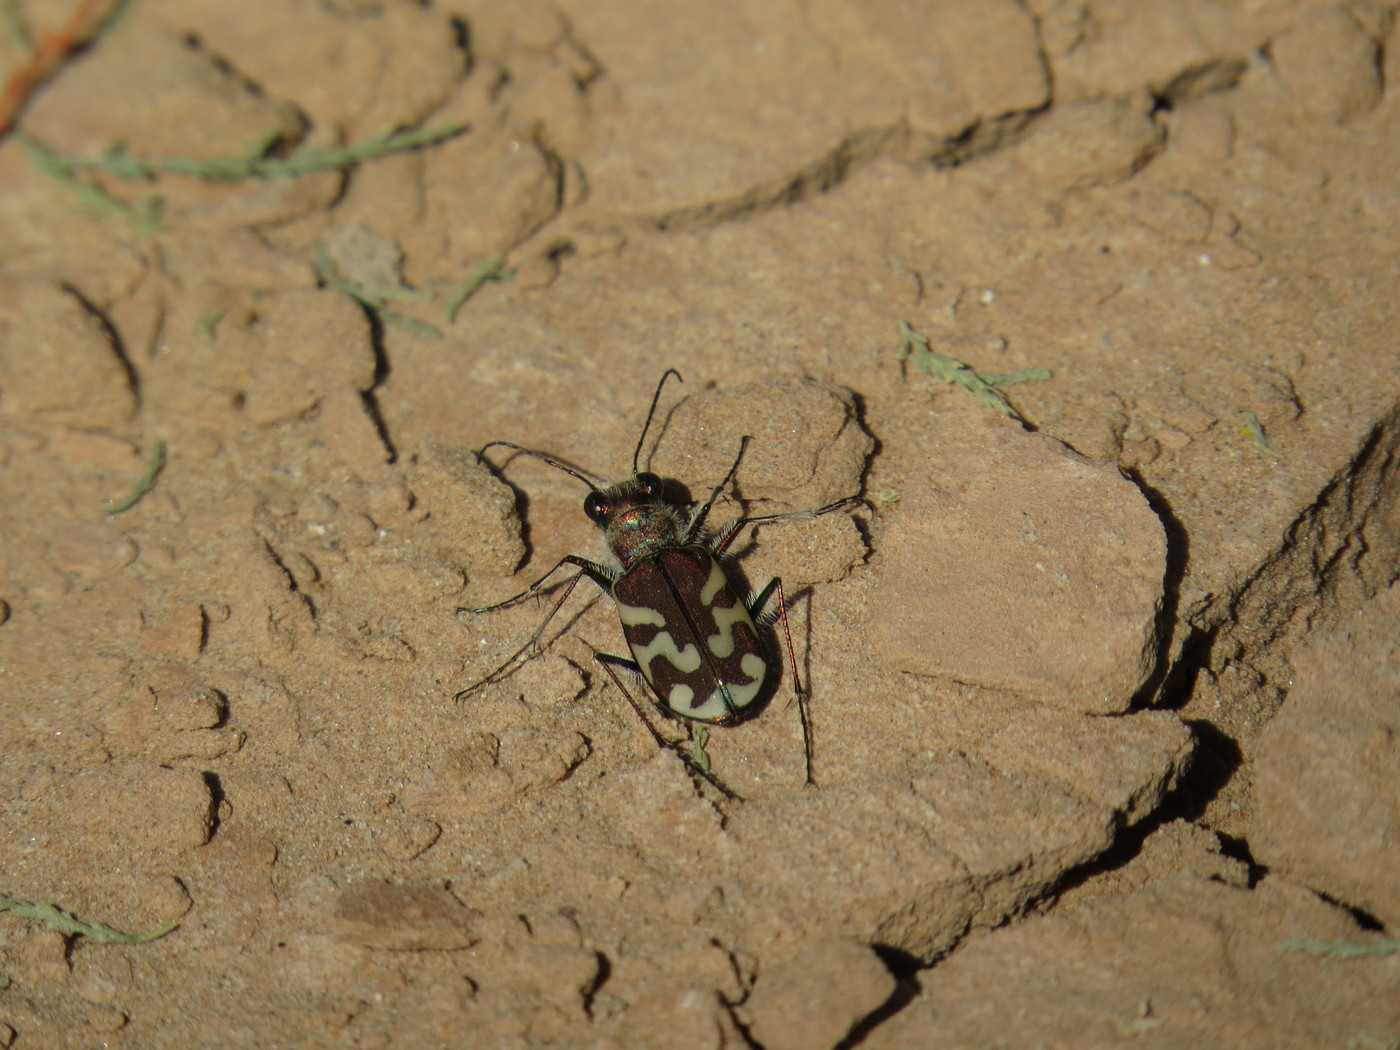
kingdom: Animalia
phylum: Arthropoda
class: Insecta
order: Coleoptera
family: Carabidae
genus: Cicindela
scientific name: Cicindela tranquebarica
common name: Oblique-lined tiger beetle
